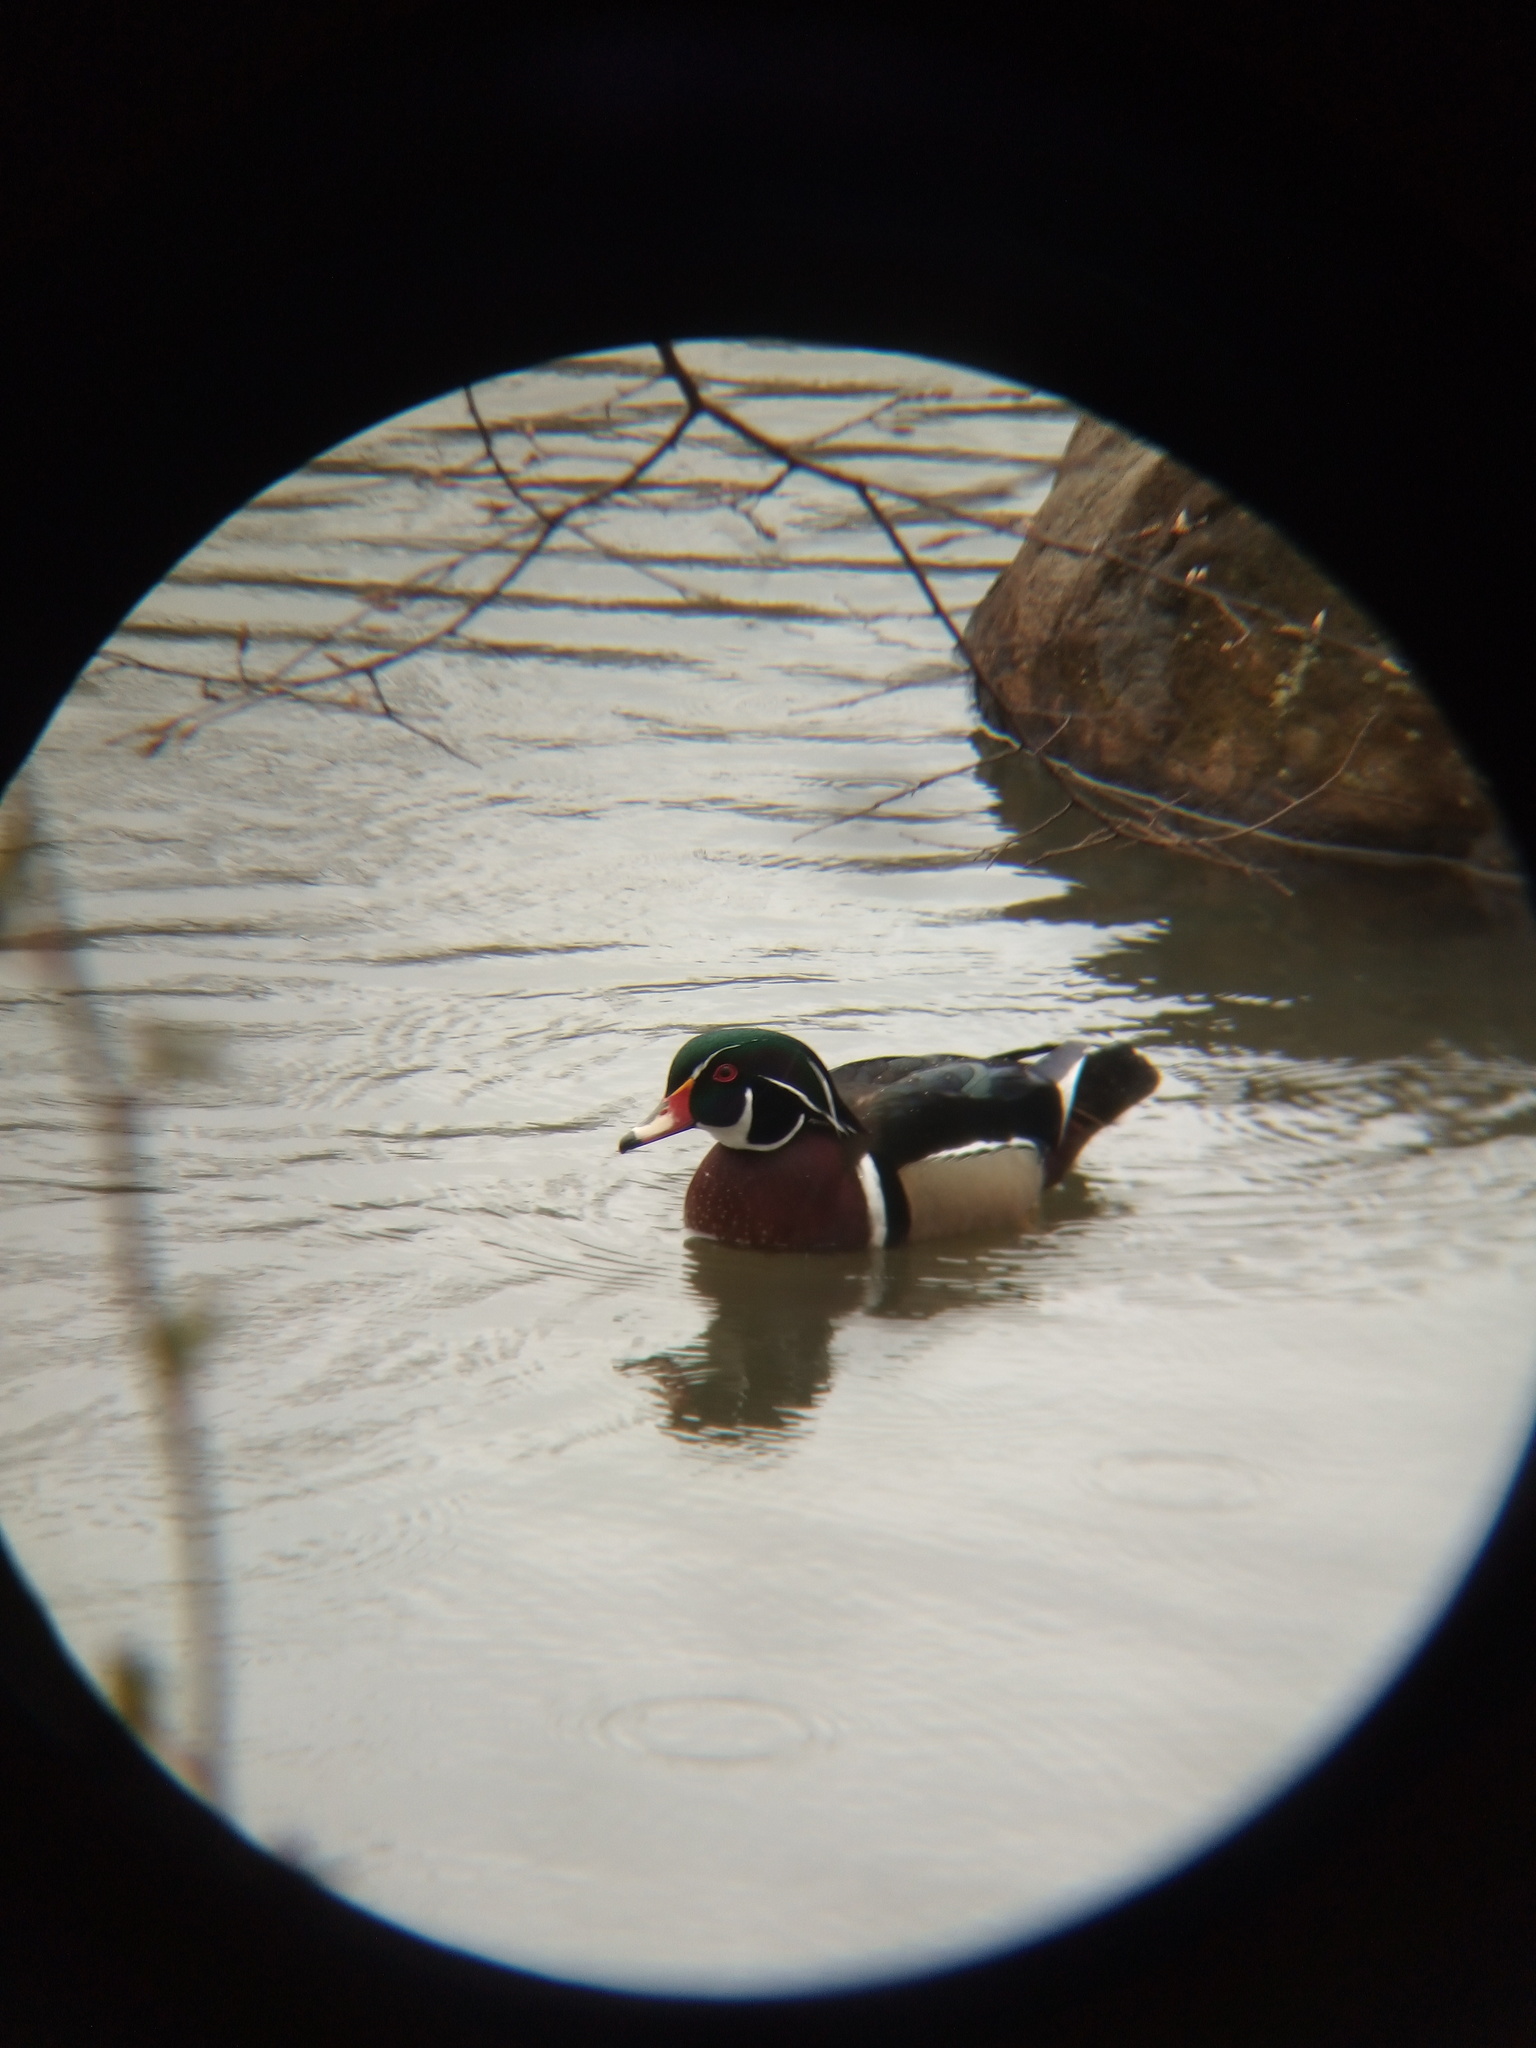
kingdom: Animalia
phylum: Chordata
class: Aves
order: Anseriformes
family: Anatidae
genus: Aix
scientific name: Aix sponsa
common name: Wood duck
